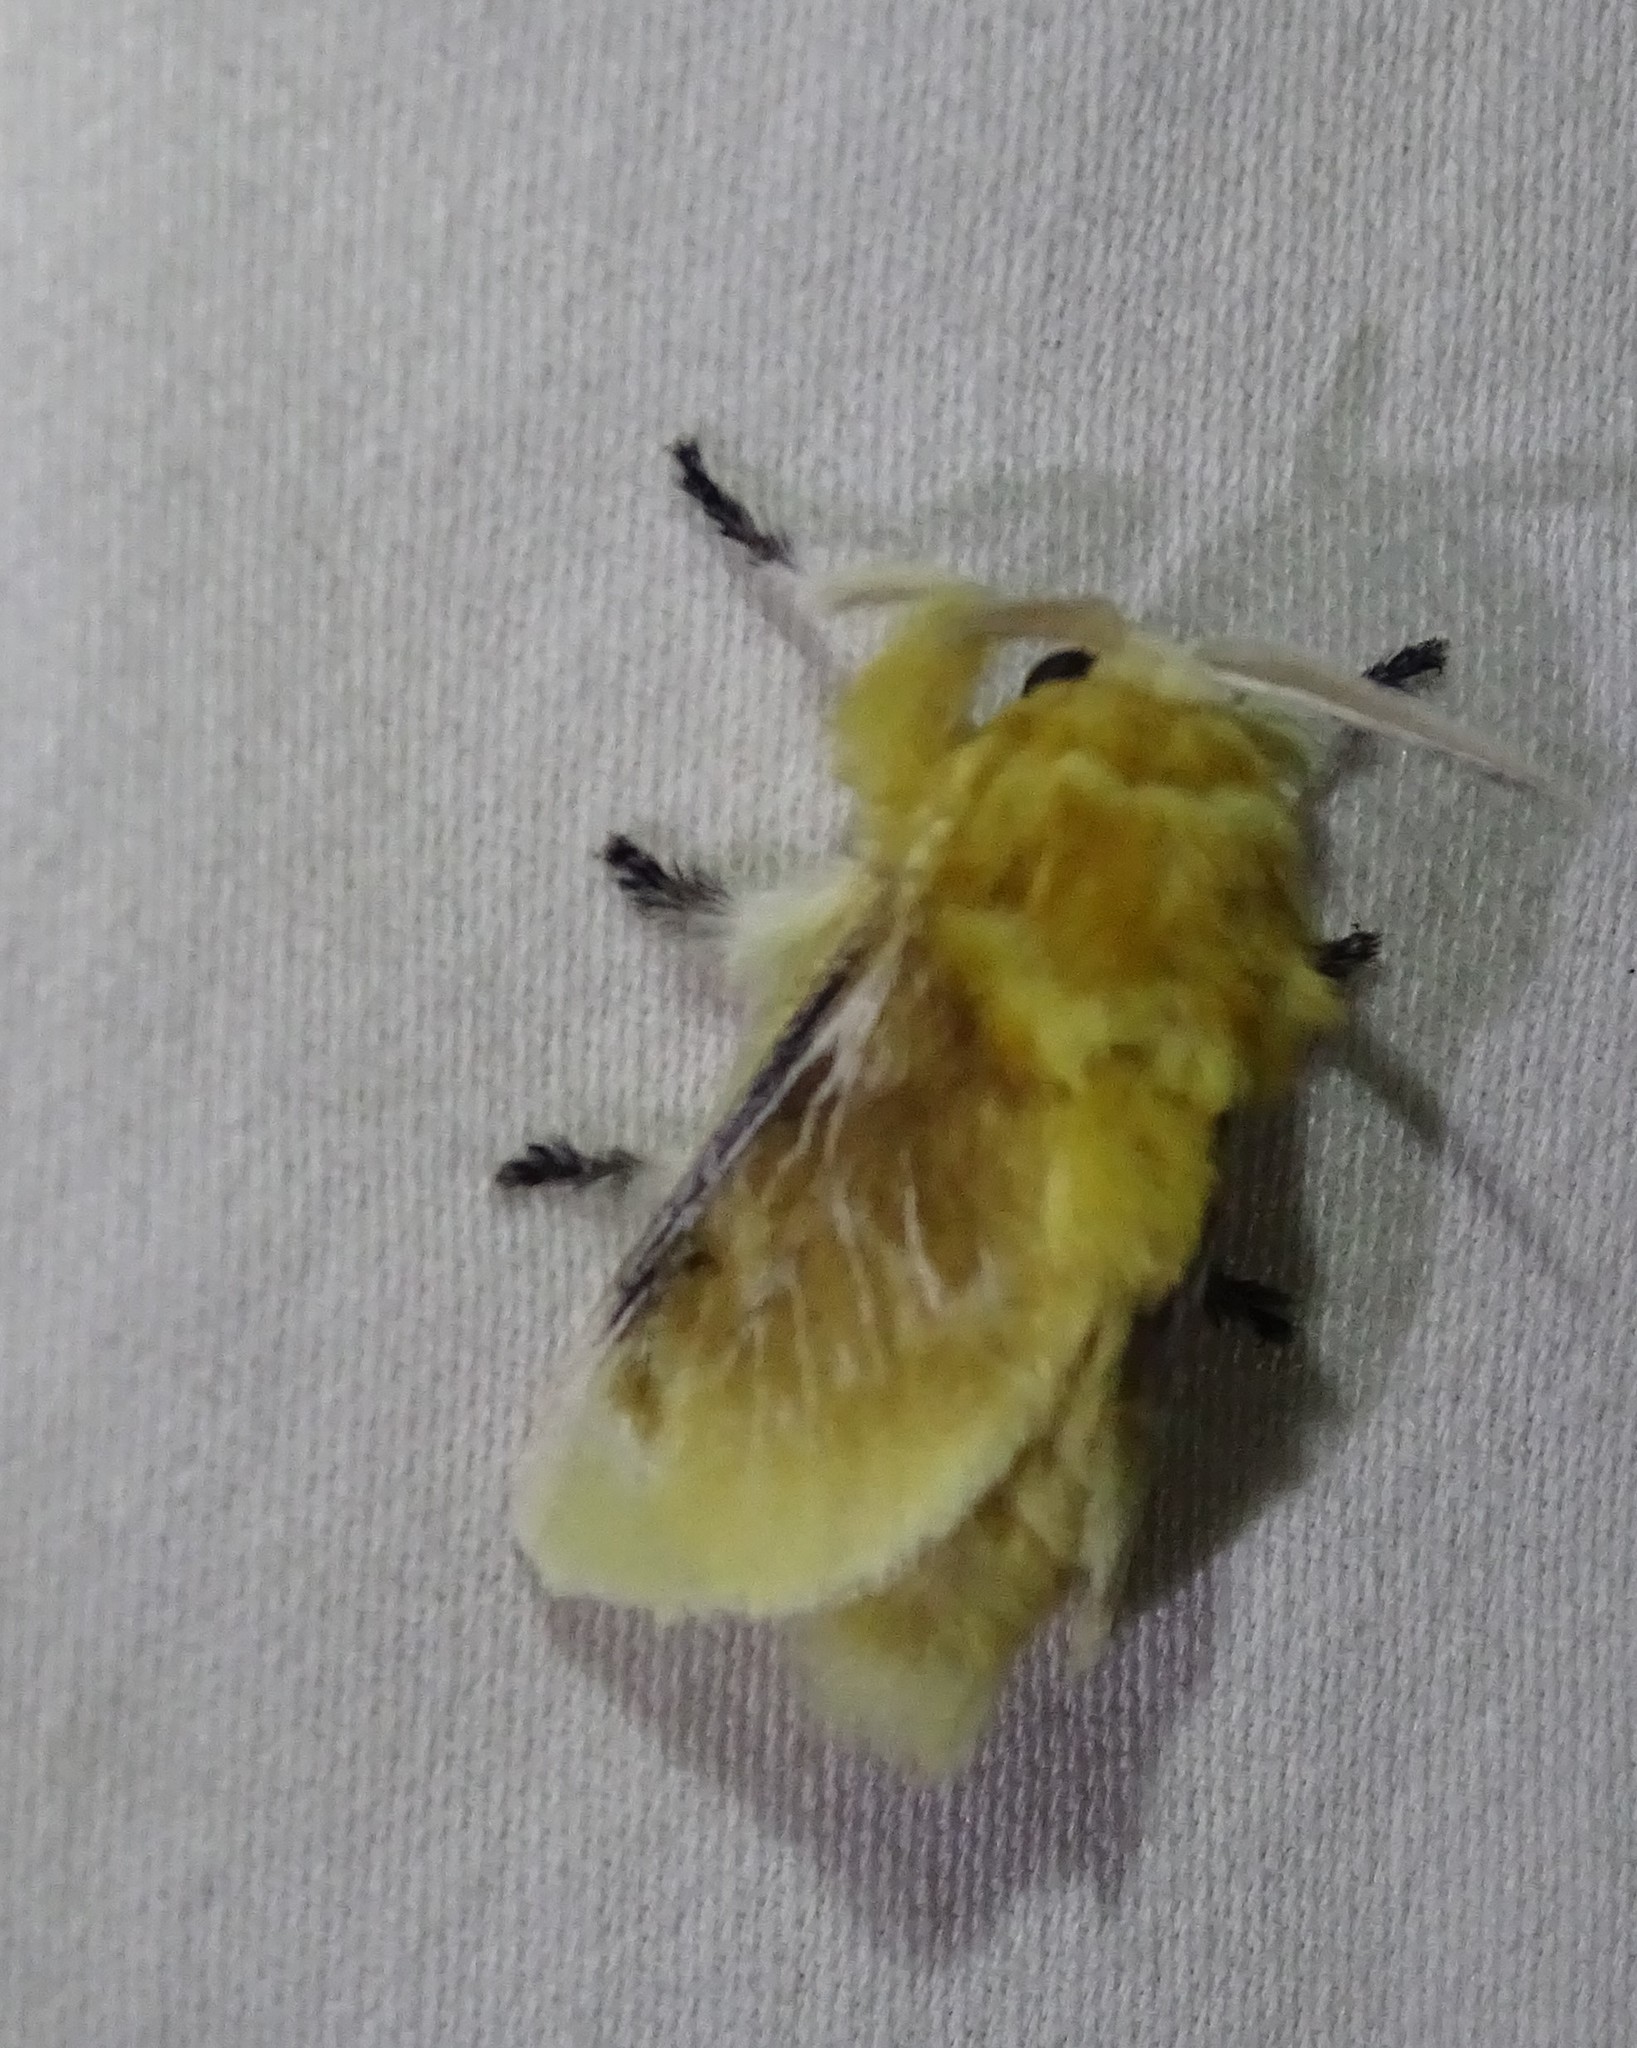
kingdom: Animalia
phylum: Arthropoda
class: Insecta
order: Lepidoptera
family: Megalopygidae
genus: Megalopyge
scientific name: Megalopyge opercularis
